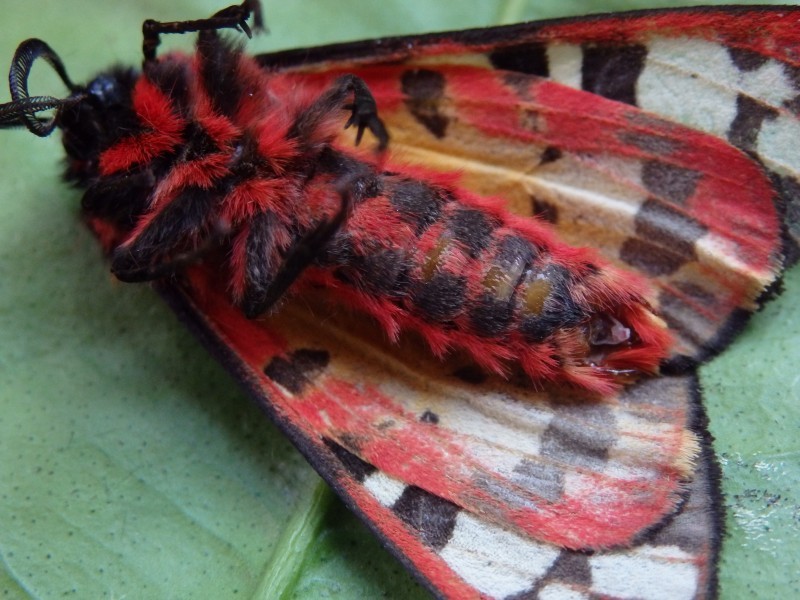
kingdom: Animalia
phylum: Arthropoda
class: Insecta
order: Lepidoptera
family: Erebidae
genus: Epicallia
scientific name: Epicallia villica
